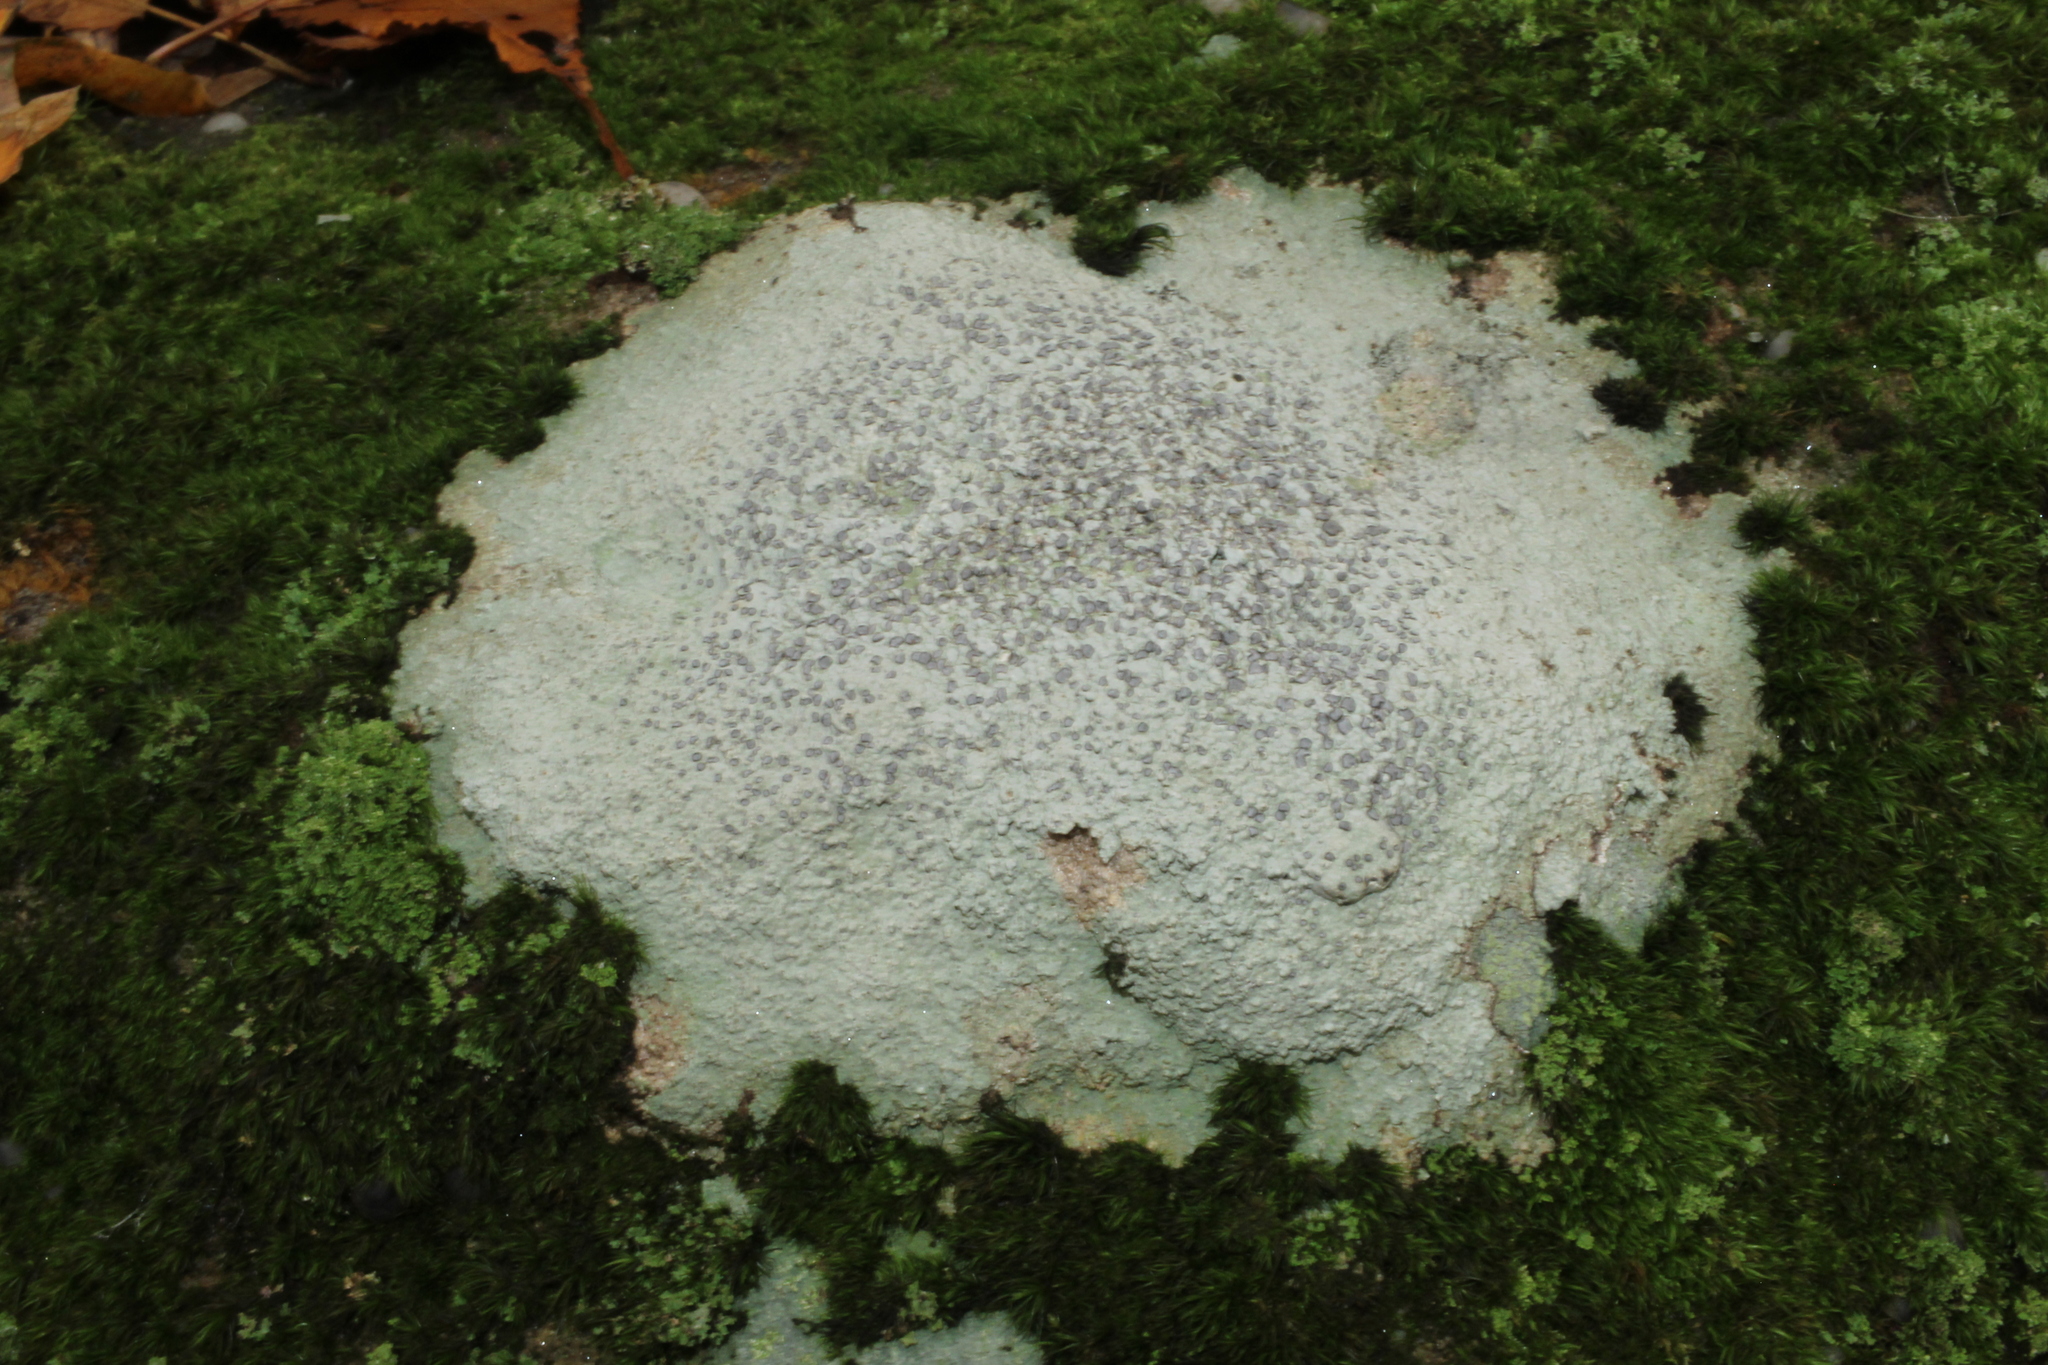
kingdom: Fungi
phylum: Ascomycota
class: Lecanoromycetes
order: Lecideales
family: Lecideaceae
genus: Porpidia
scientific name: Porpidia albocaerulescens
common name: Smokey-eyed boulder lichen
